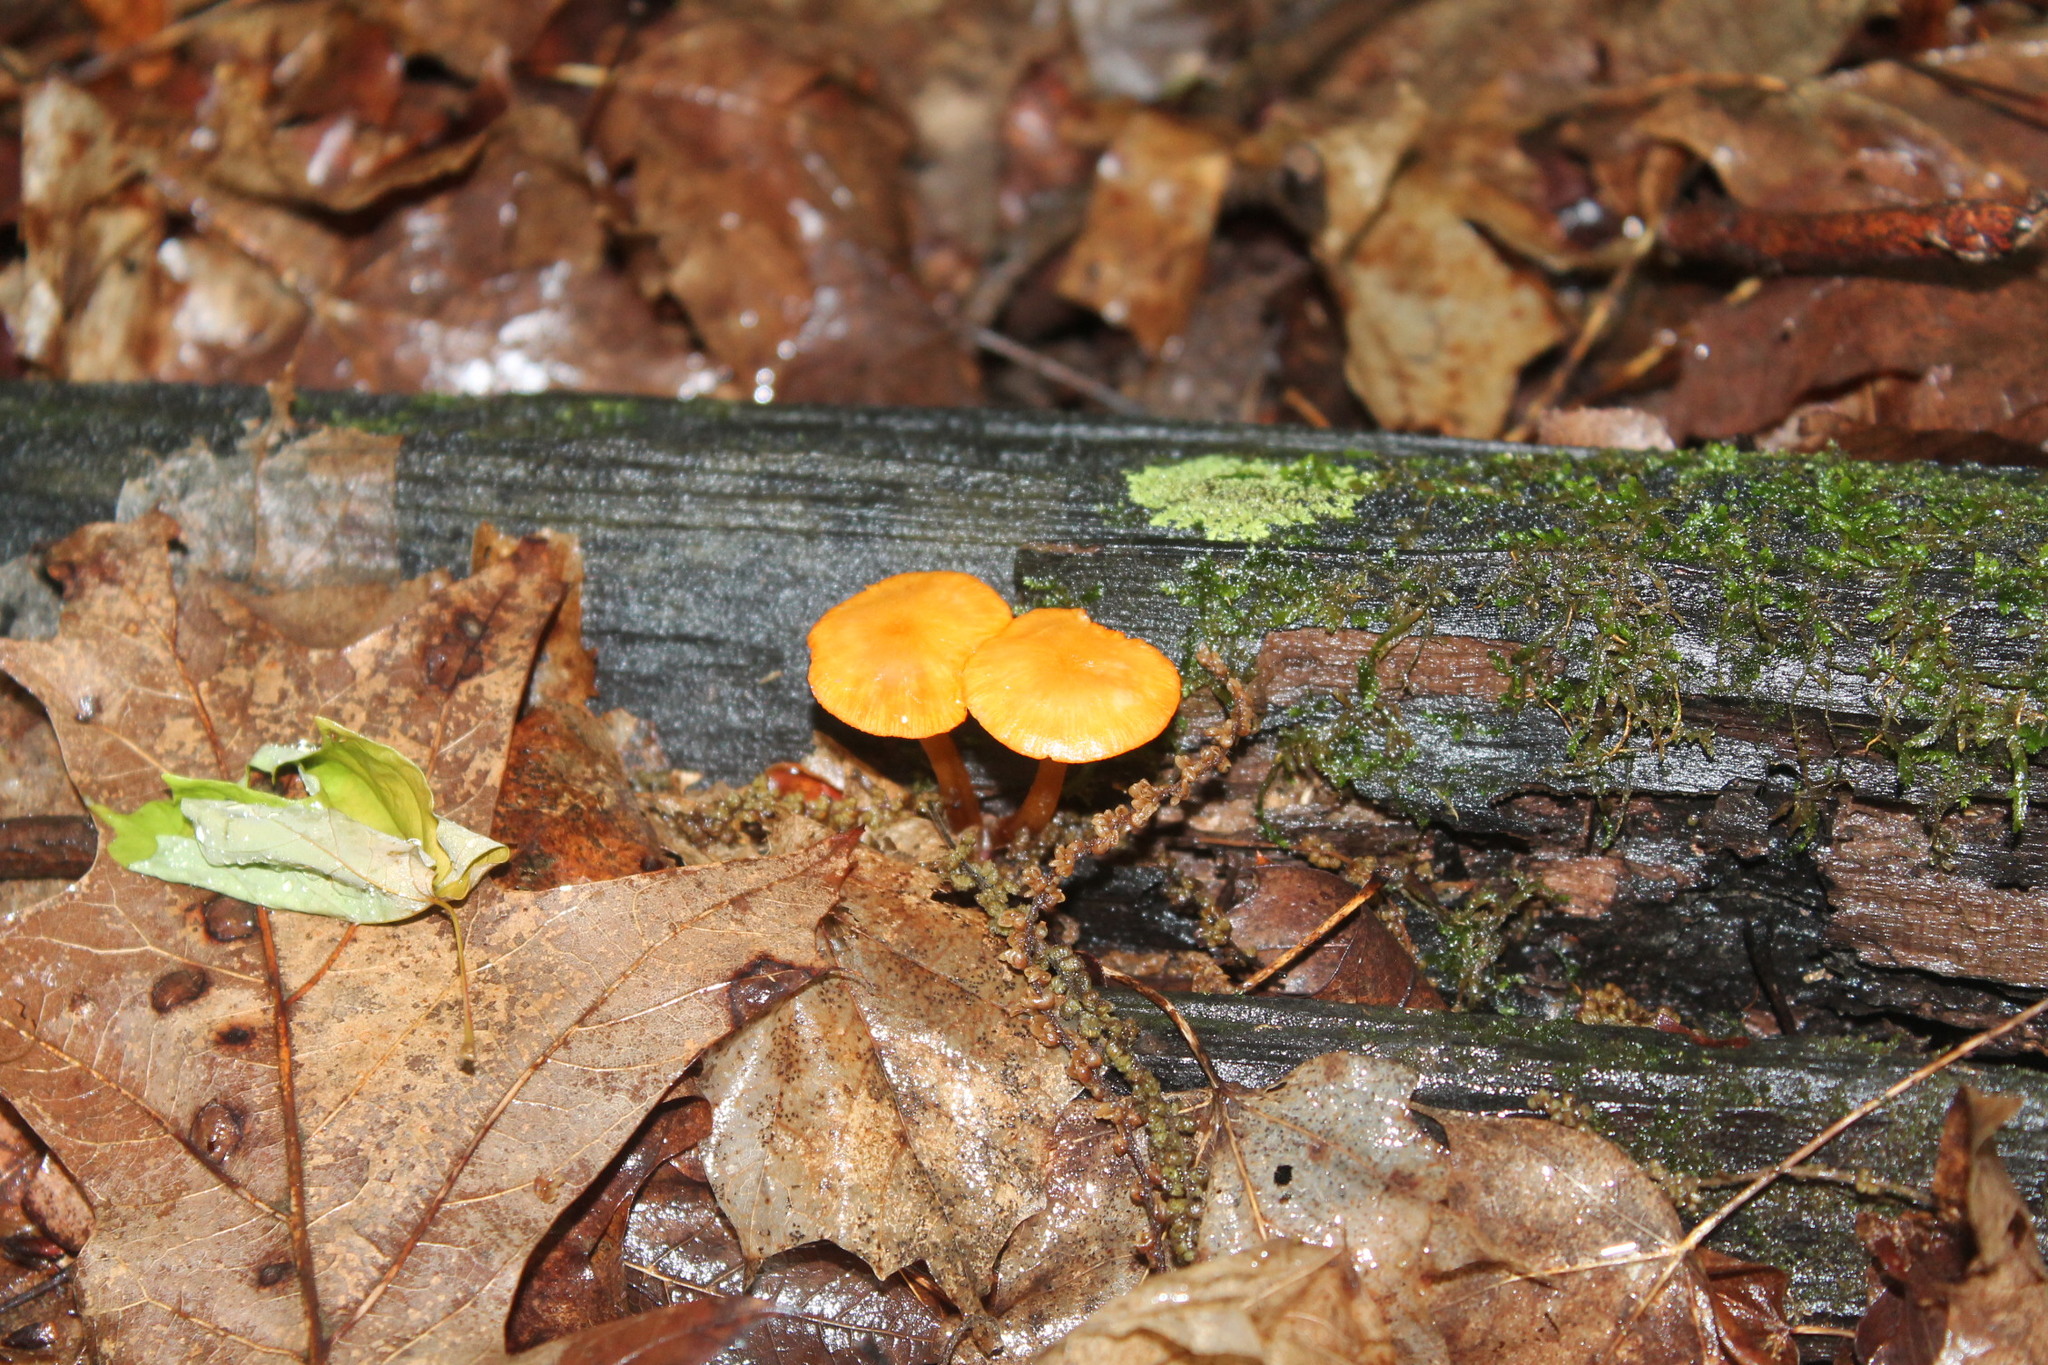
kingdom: Fungi
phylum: Basidiomycota
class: Agaricomycetes
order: Agaricales
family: Mycenaceae
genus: Mycena
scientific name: Mycena leaiana
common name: Orange mycena
